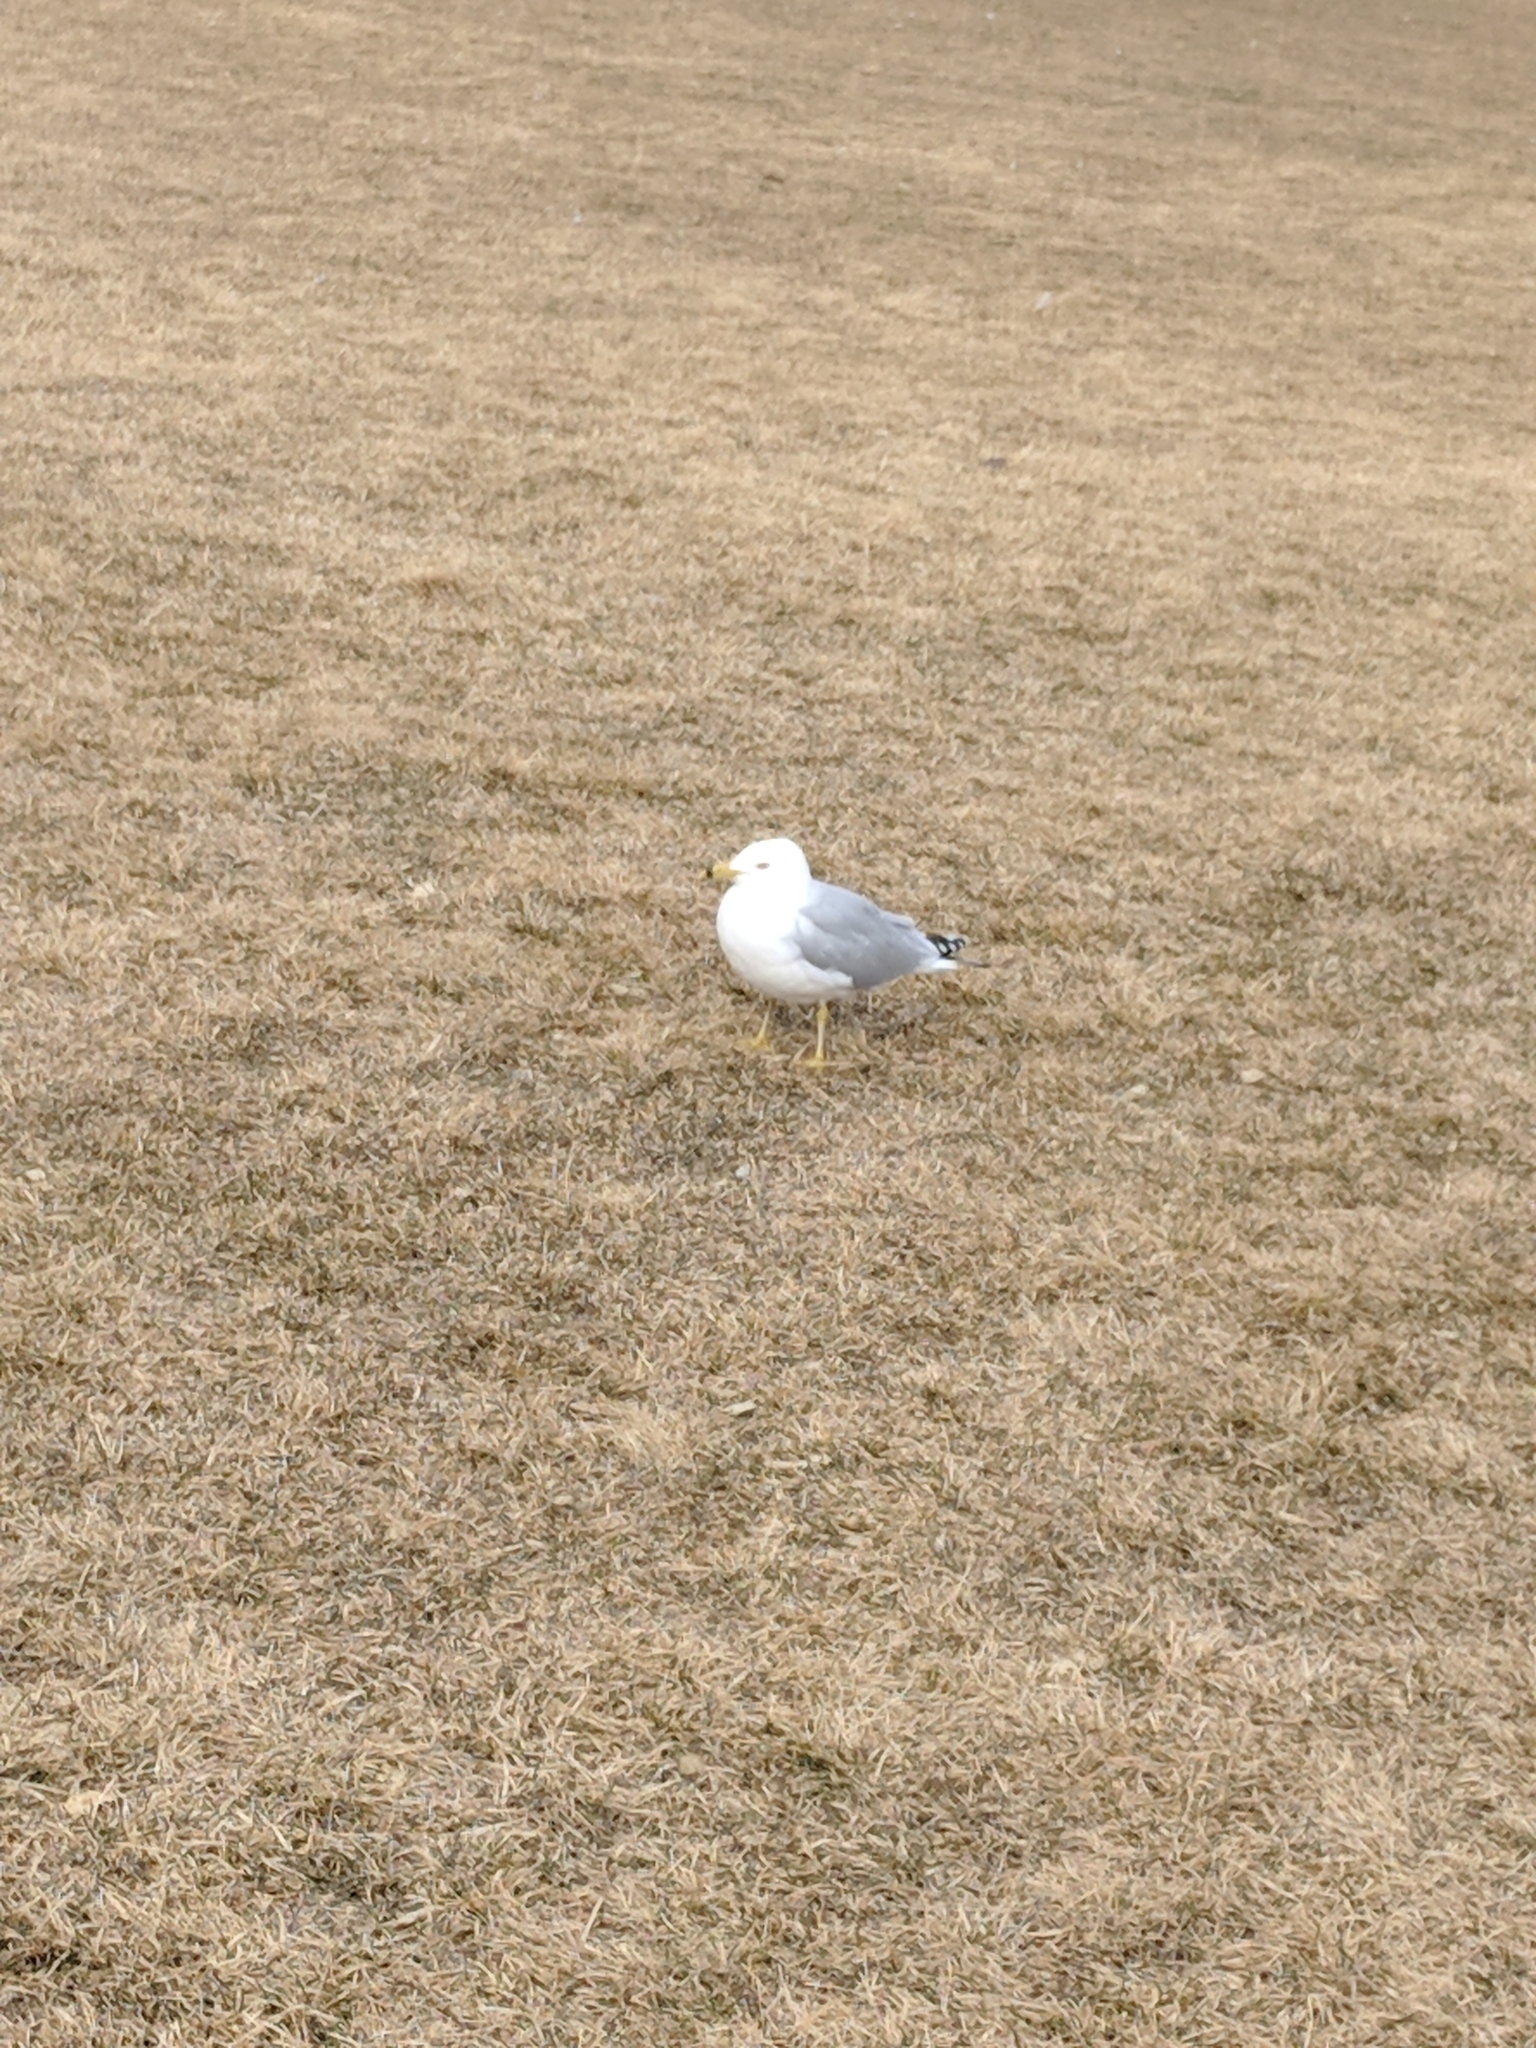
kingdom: Animalia
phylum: Chordata
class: Aves
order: Charadriiformes
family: Laridae
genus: Larus
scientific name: Larus delawarensis
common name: Ring-billed gull
